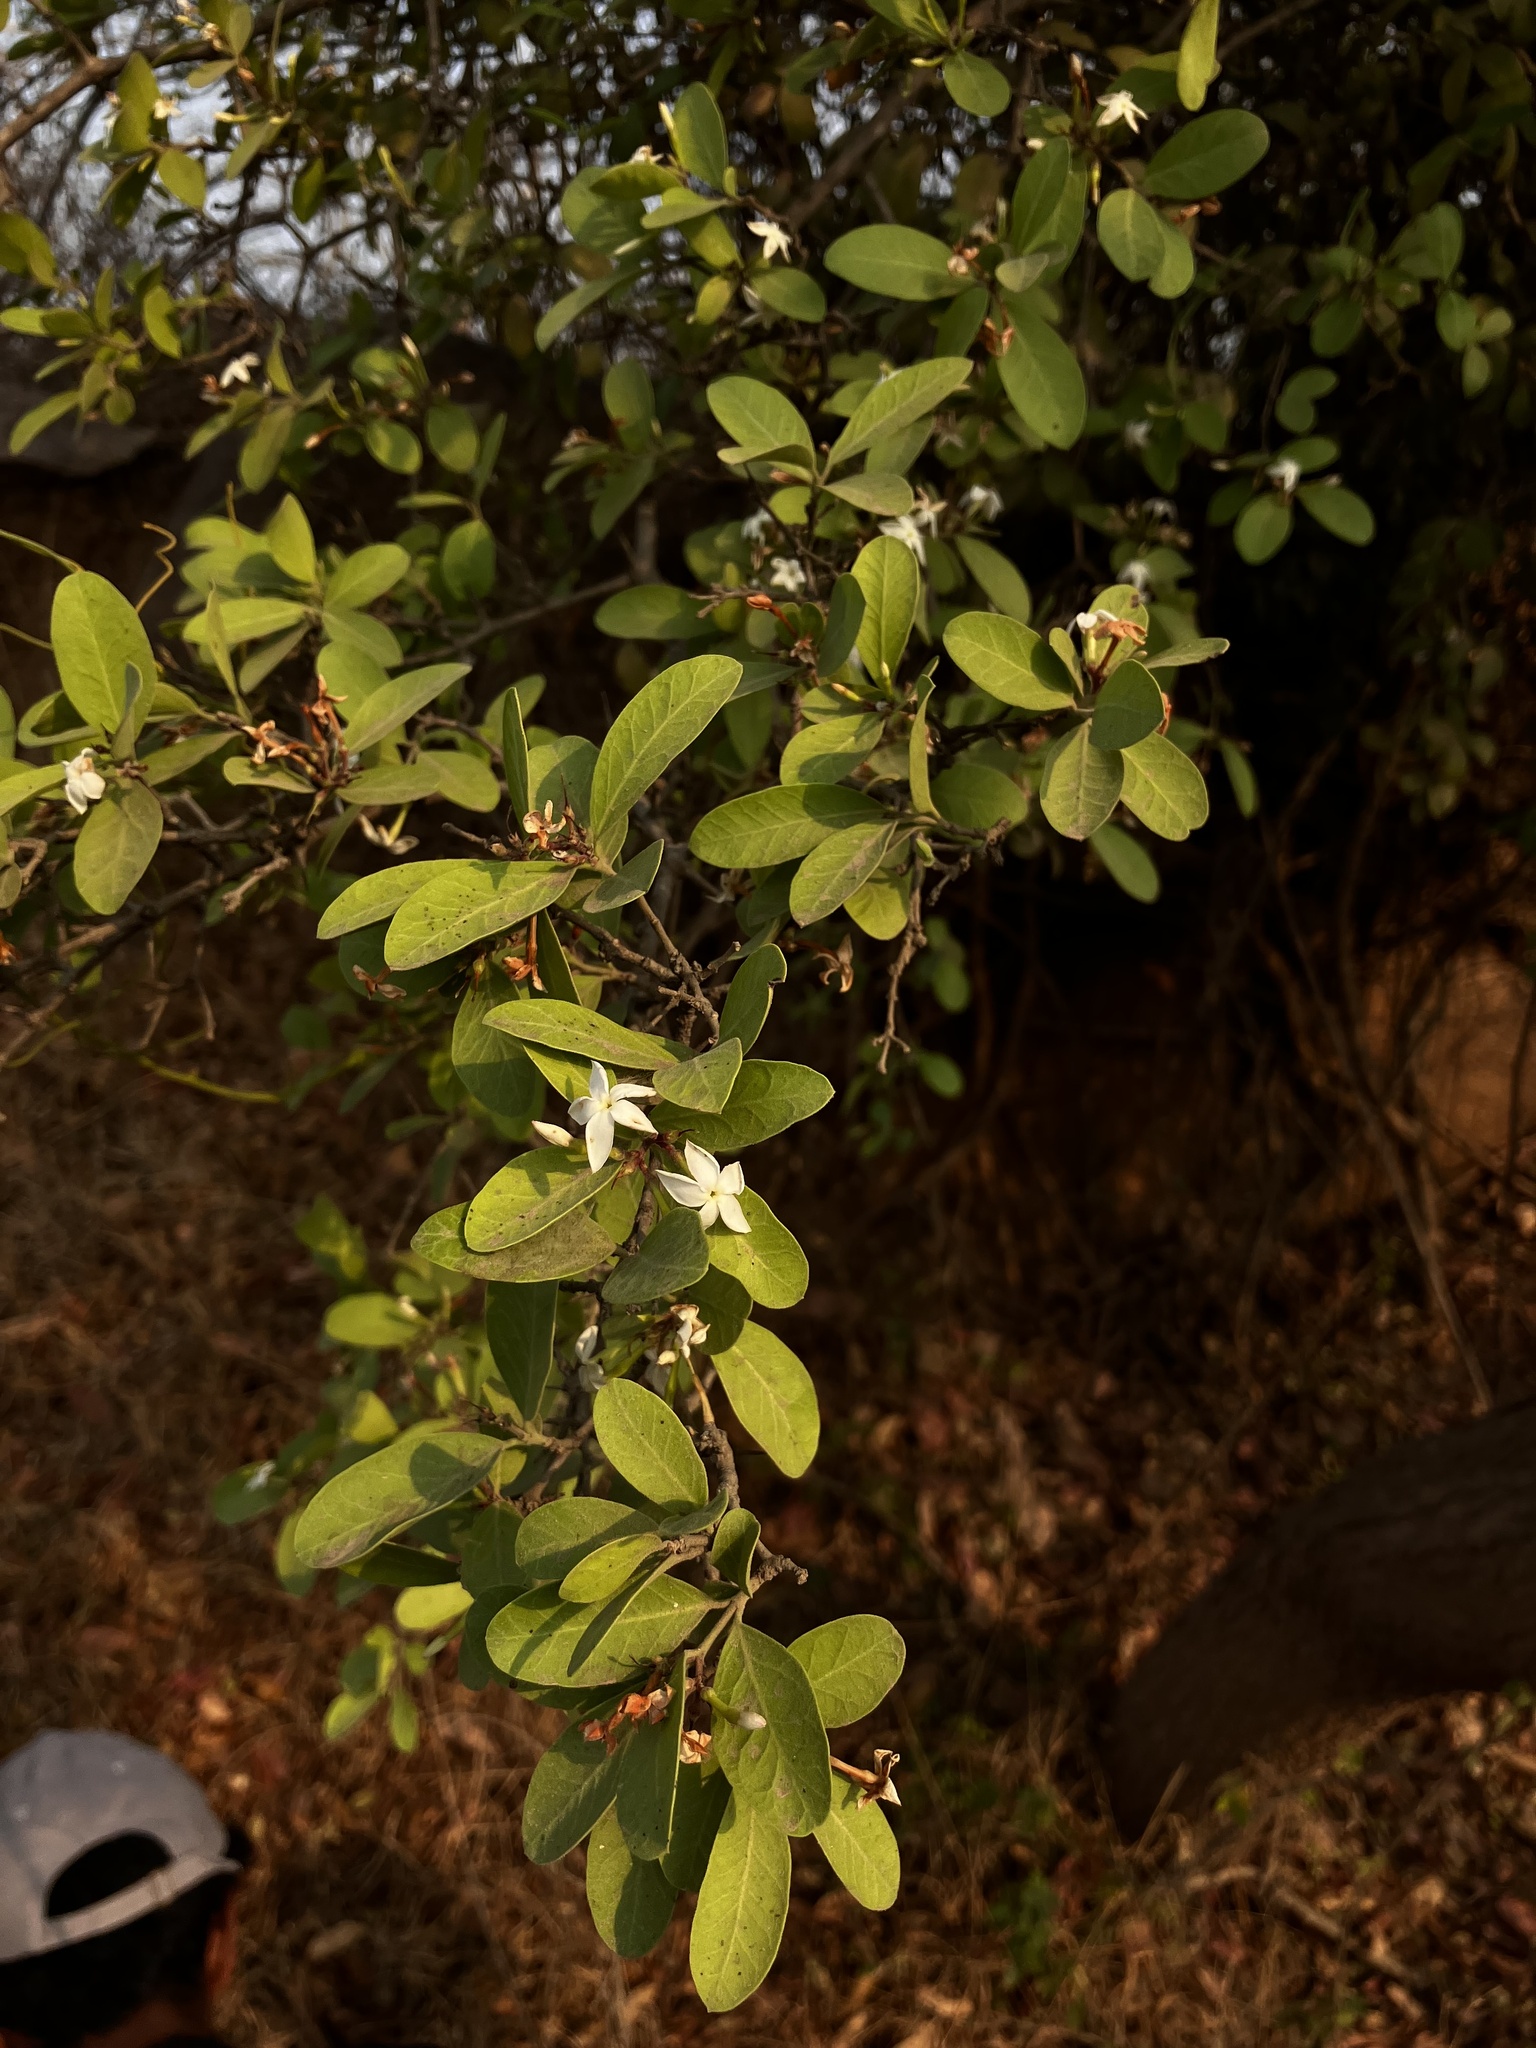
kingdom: Plantae
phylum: Tracheophyta
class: Magnoliopsida
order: Gentianales
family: Apocynaceae
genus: Carissa
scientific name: Carissa carandas
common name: Karanda
